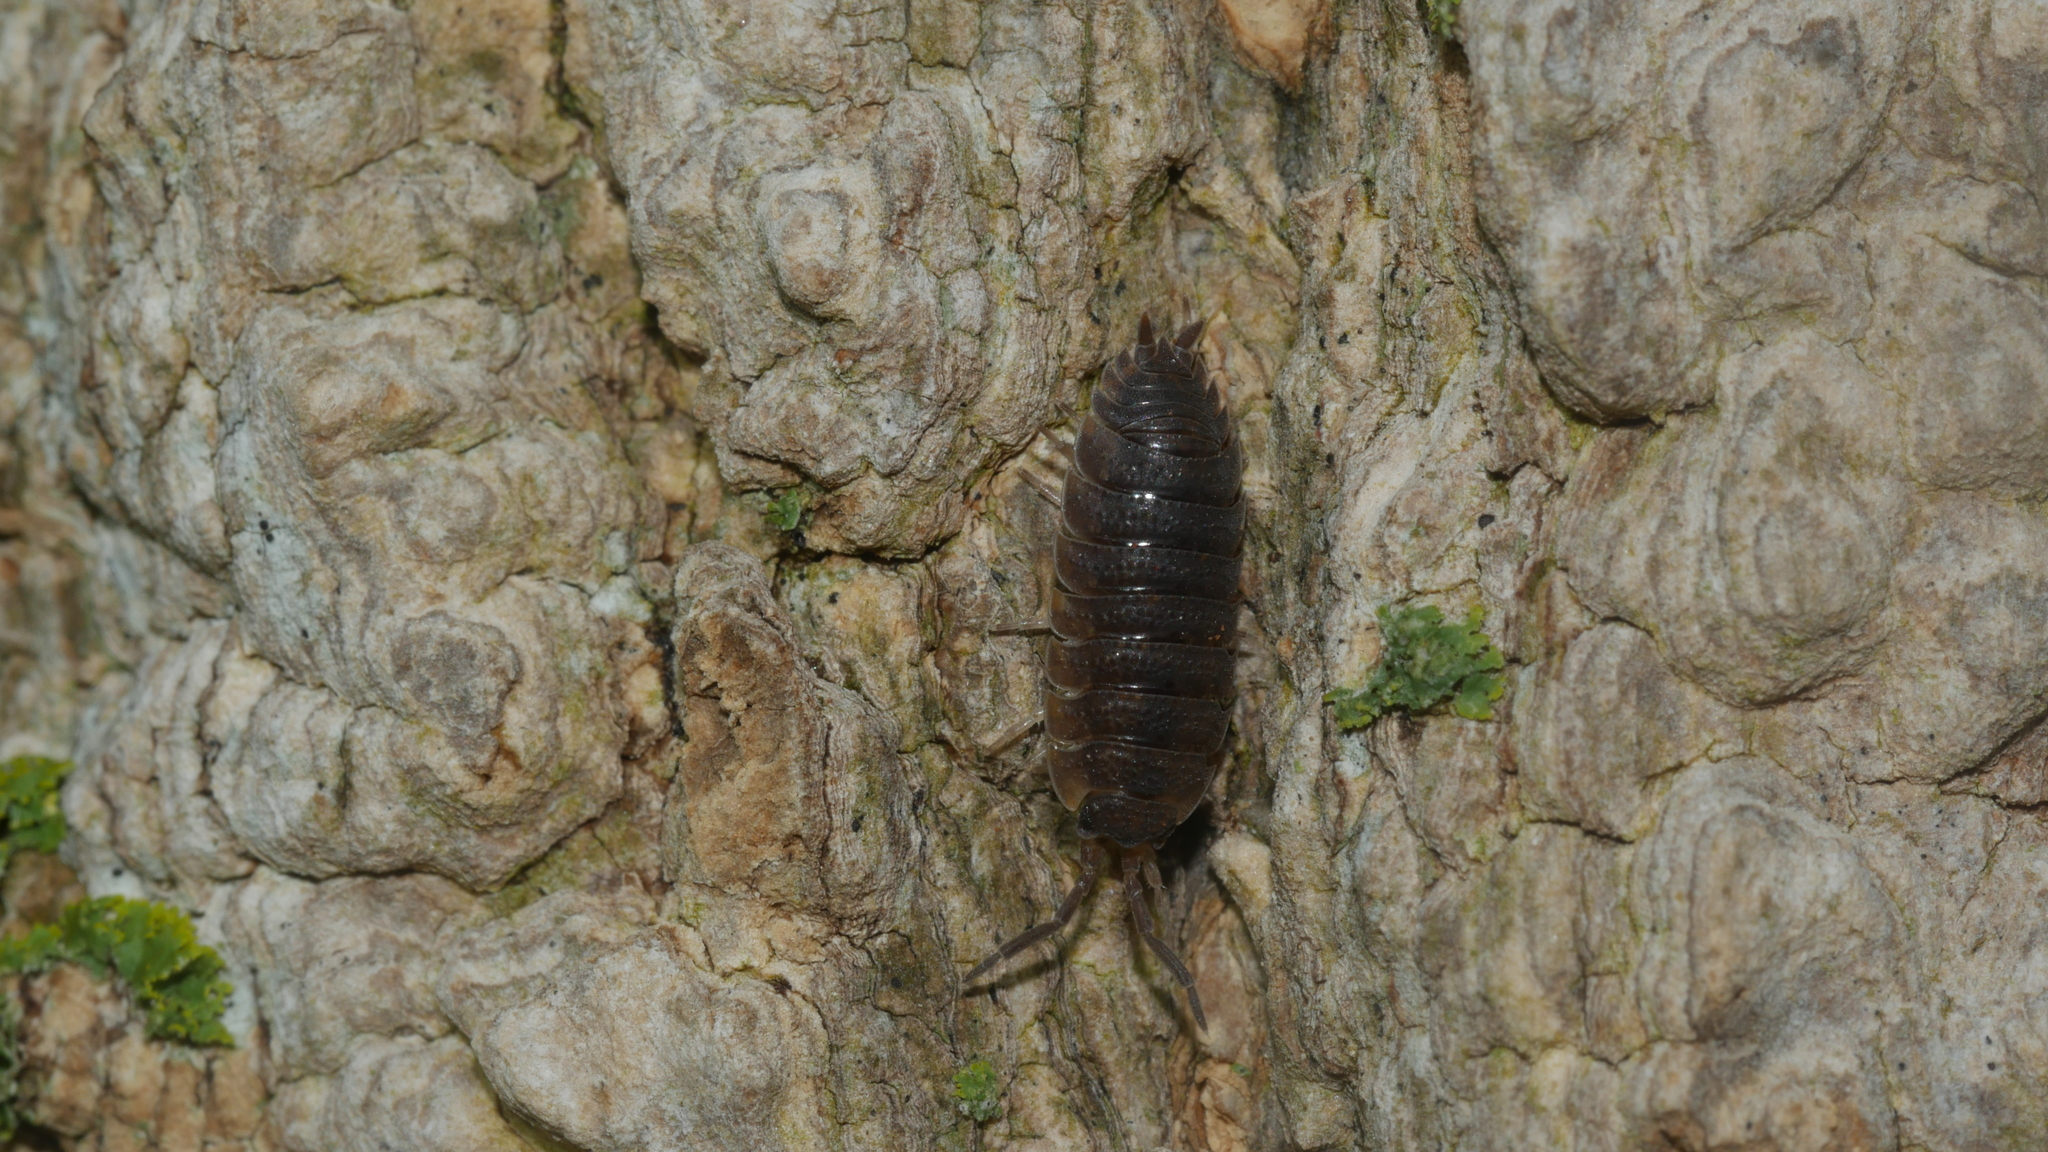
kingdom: Animalia
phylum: Arthropoda
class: Malacostraca
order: Isopoda
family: Porcellionidae
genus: Porcellio
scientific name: Porcellio scaber
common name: Common rough woodlouse
